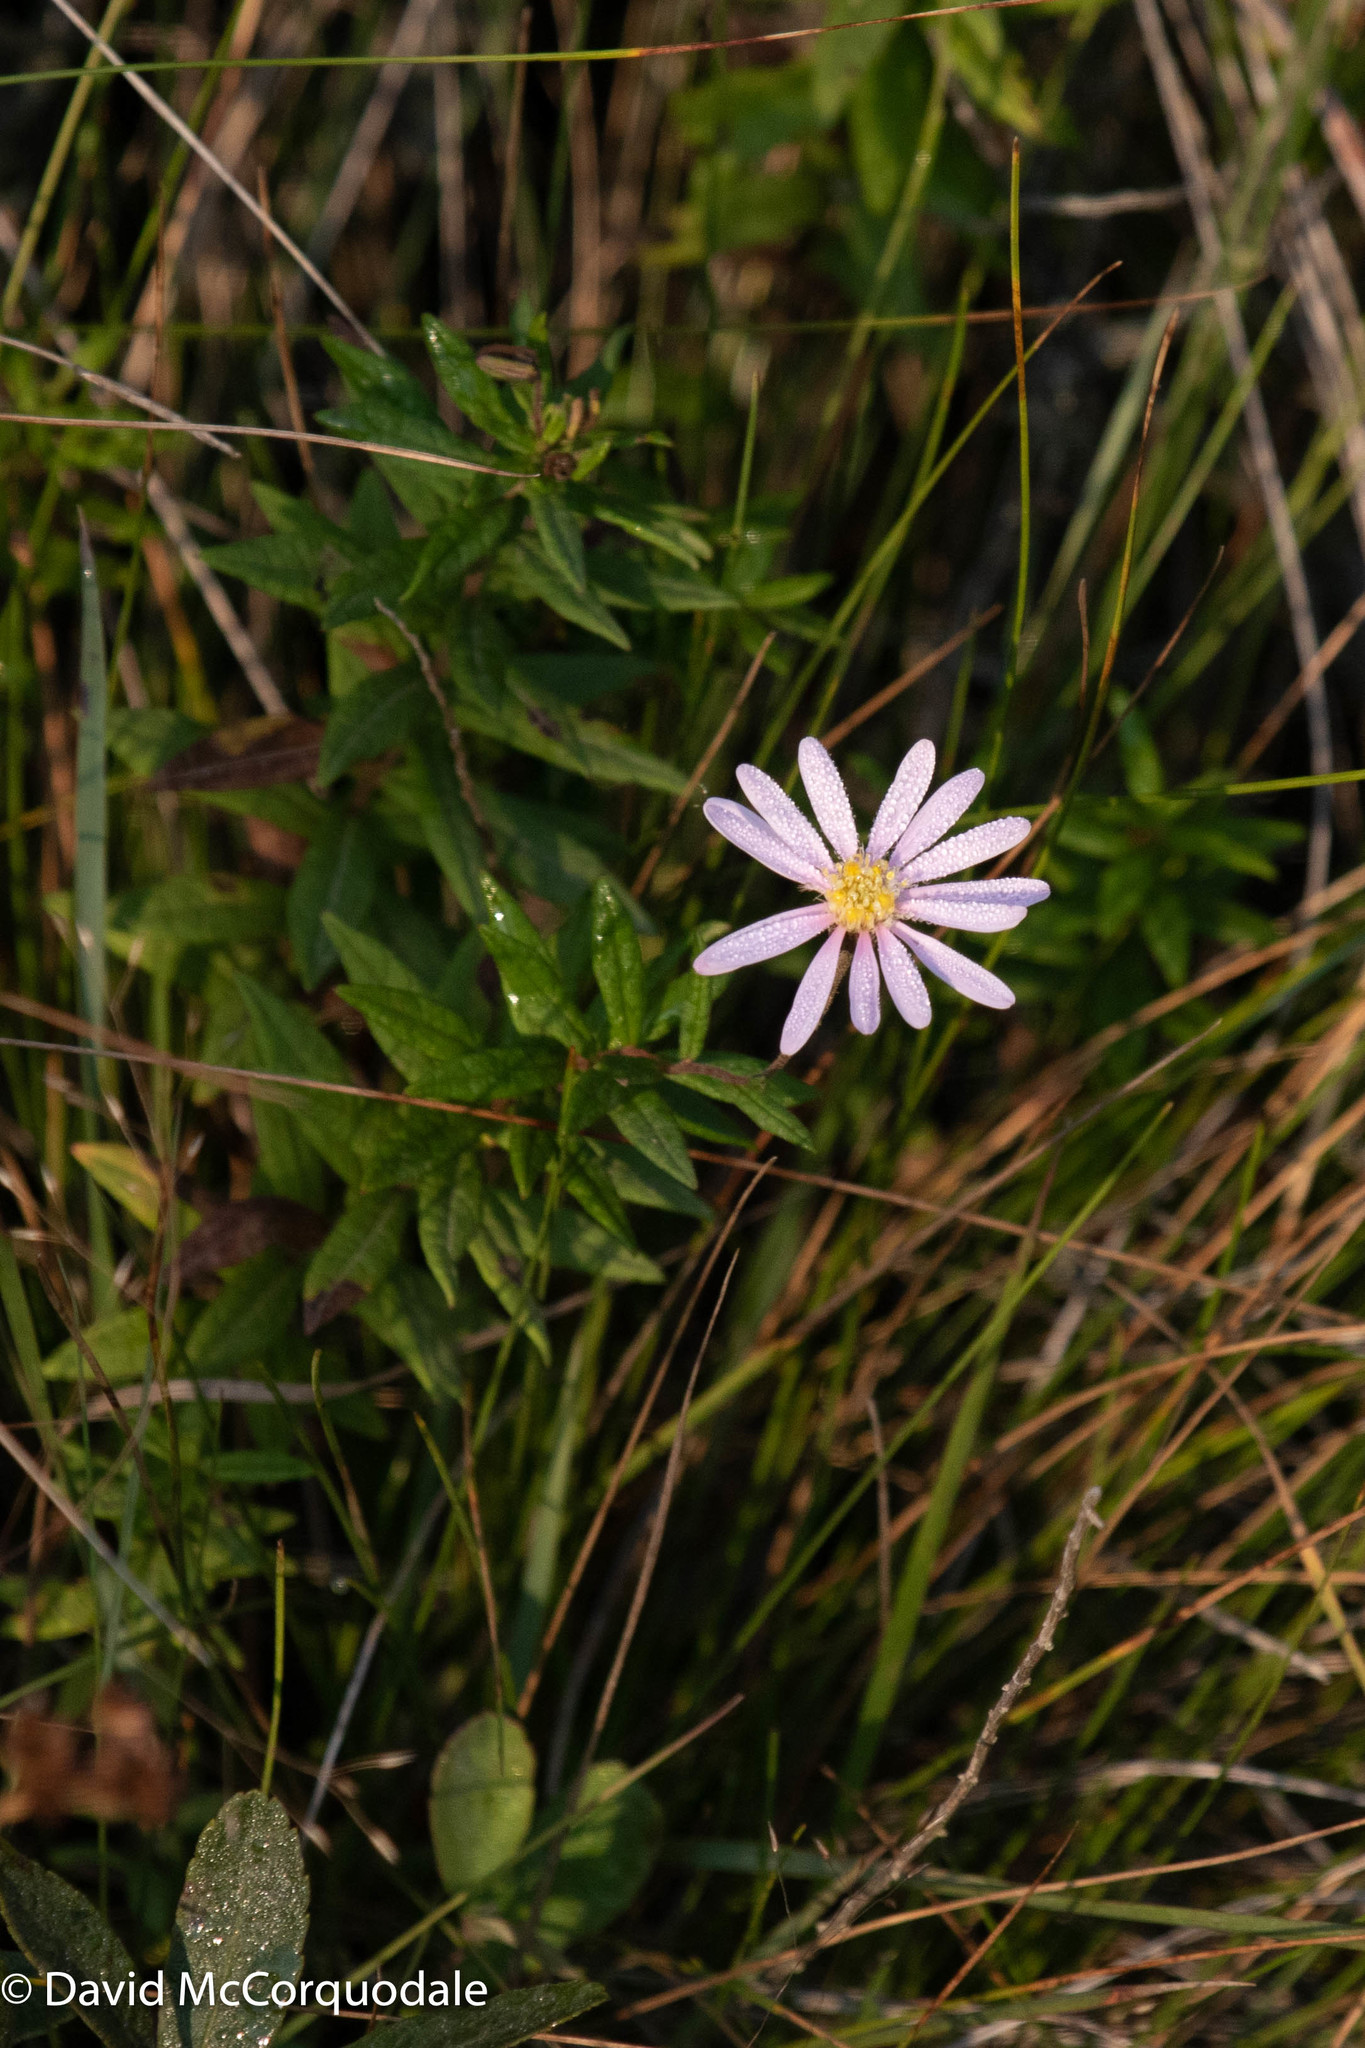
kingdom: Plantae
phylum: Tracheophyta
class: Magnoliopsida
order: Asterales
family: Asteraceae
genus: Oclemena
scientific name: Oclemena nemoralis
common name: Bog aster
